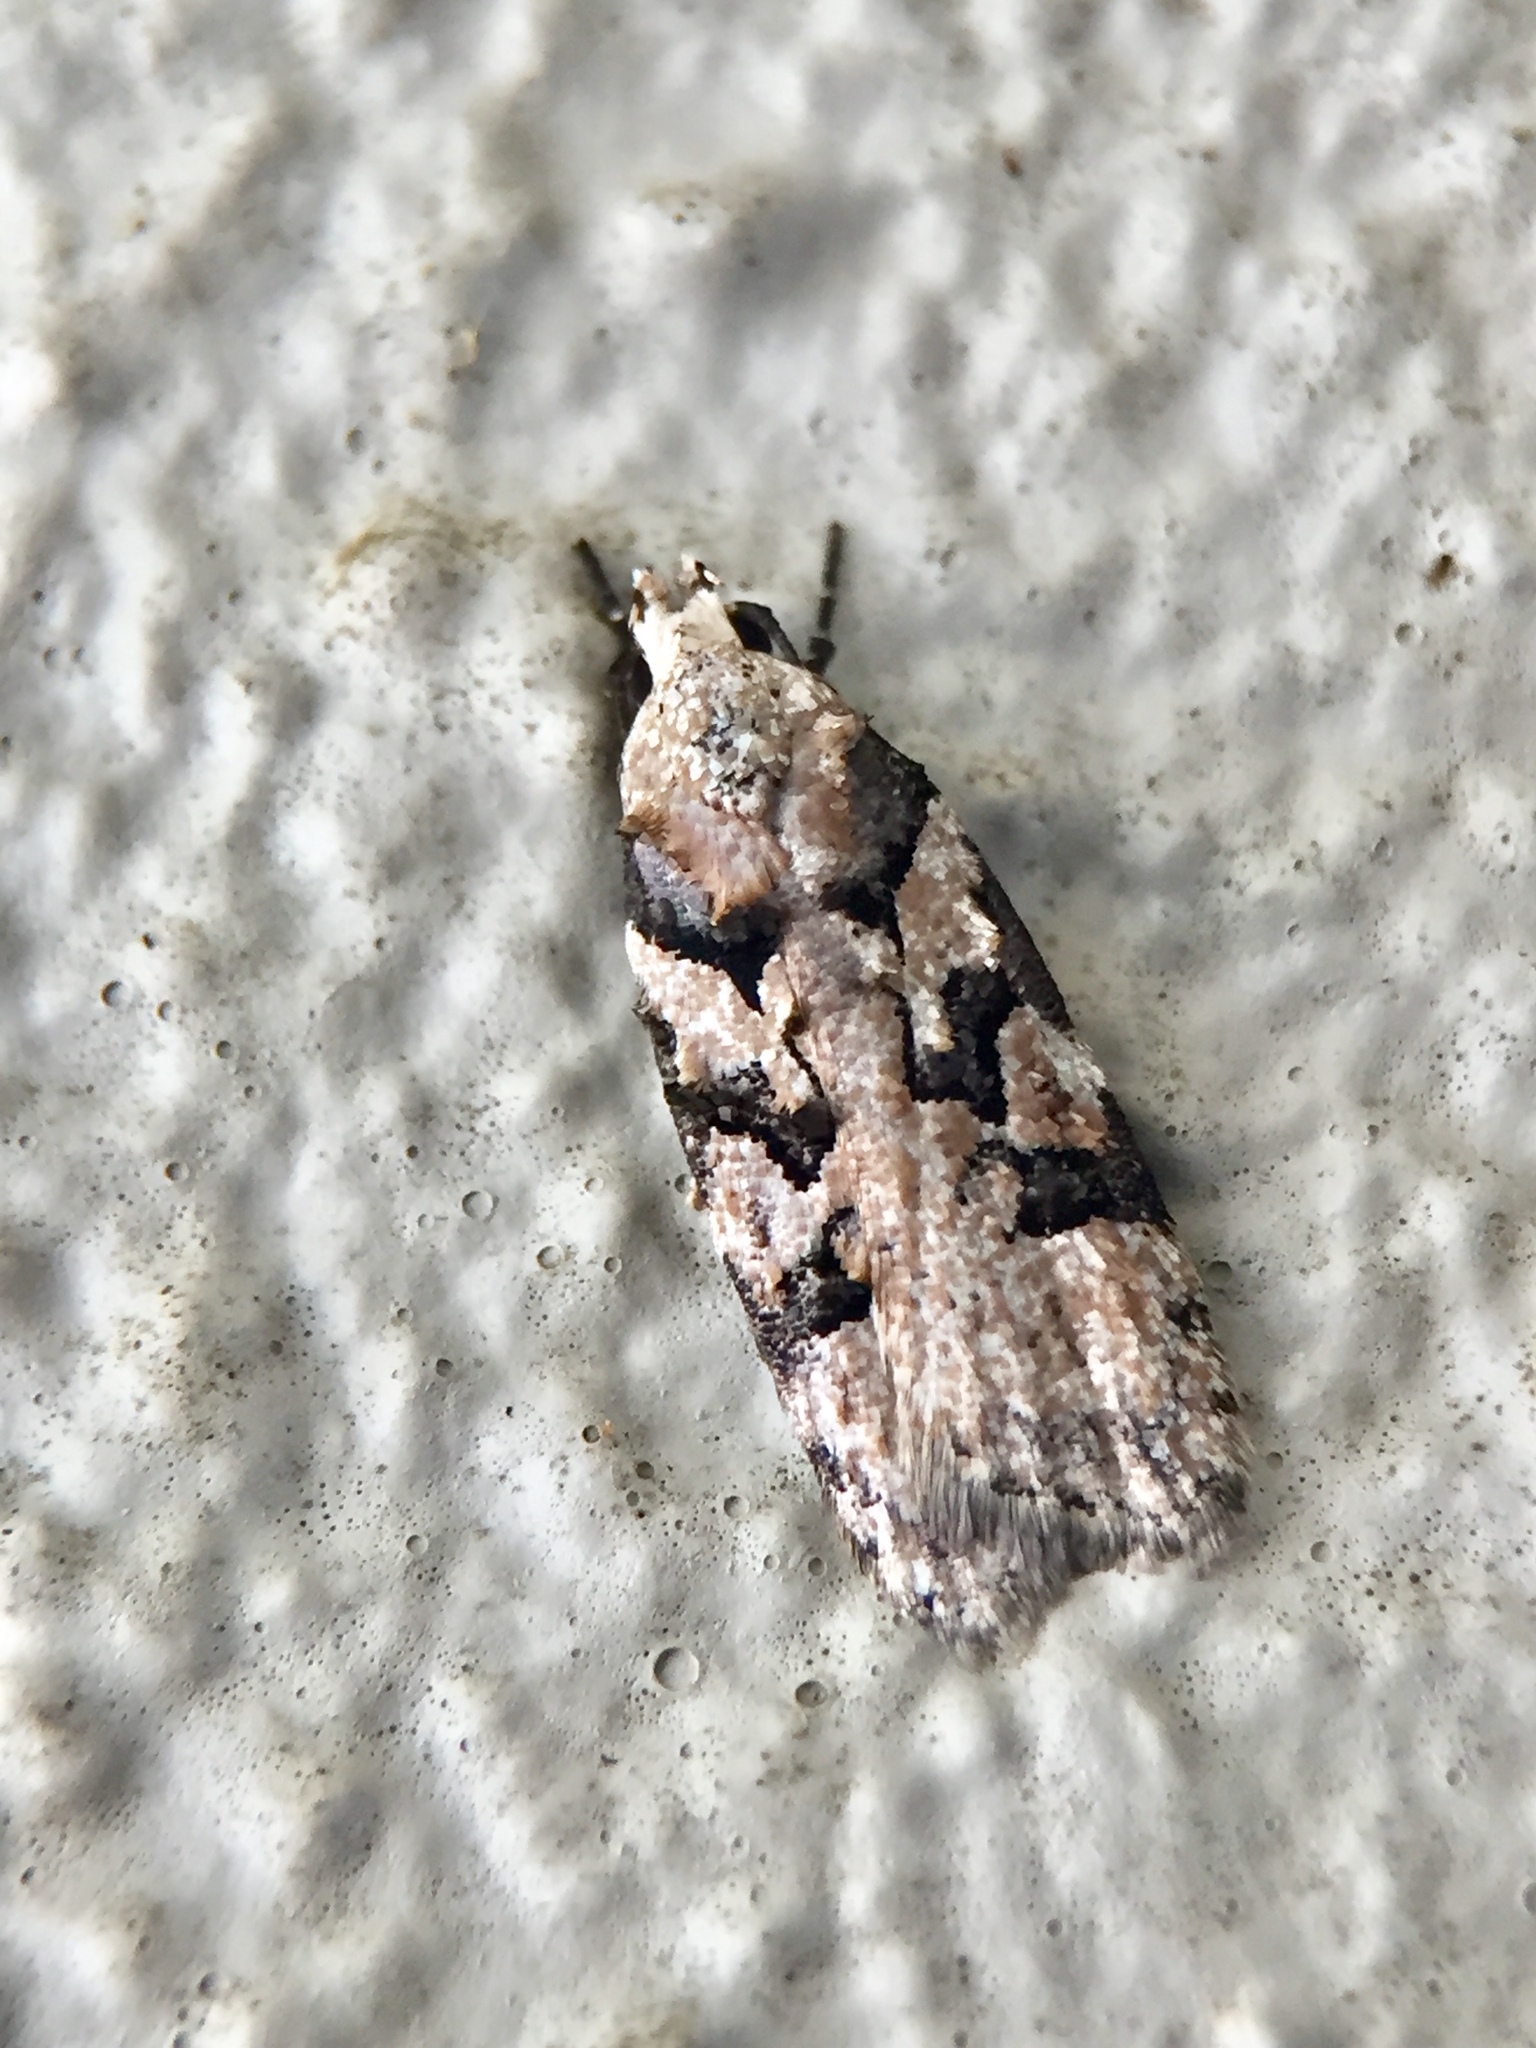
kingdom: Animalia
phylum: Arthropoda
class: Insecta
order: Lepidoptera
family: Oecophoridae
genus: Izatha
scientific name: Izatha epiphanes
